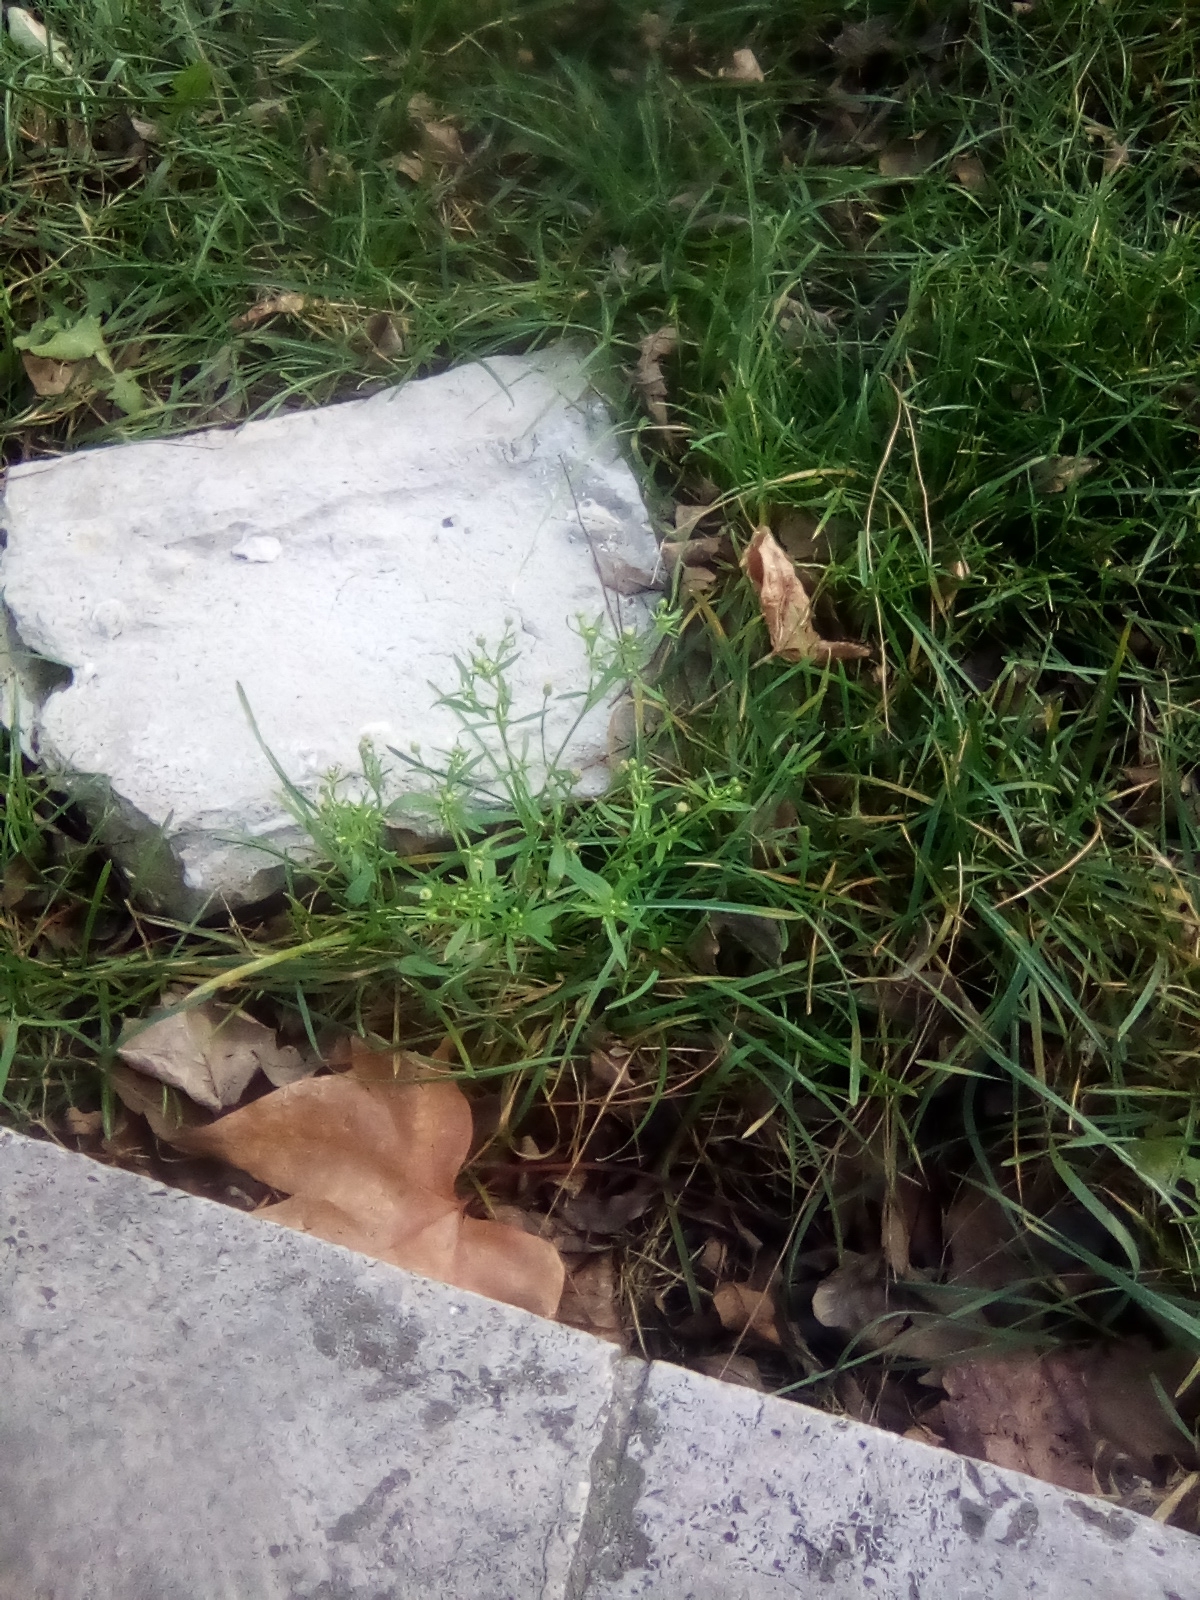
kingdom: Plantae
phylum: Tracheophyta
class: Magnoliopsida
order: Asterales
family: Asteraceae
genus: Erigeron
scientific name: Erigeron canadensis
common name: Canadian fleabane
